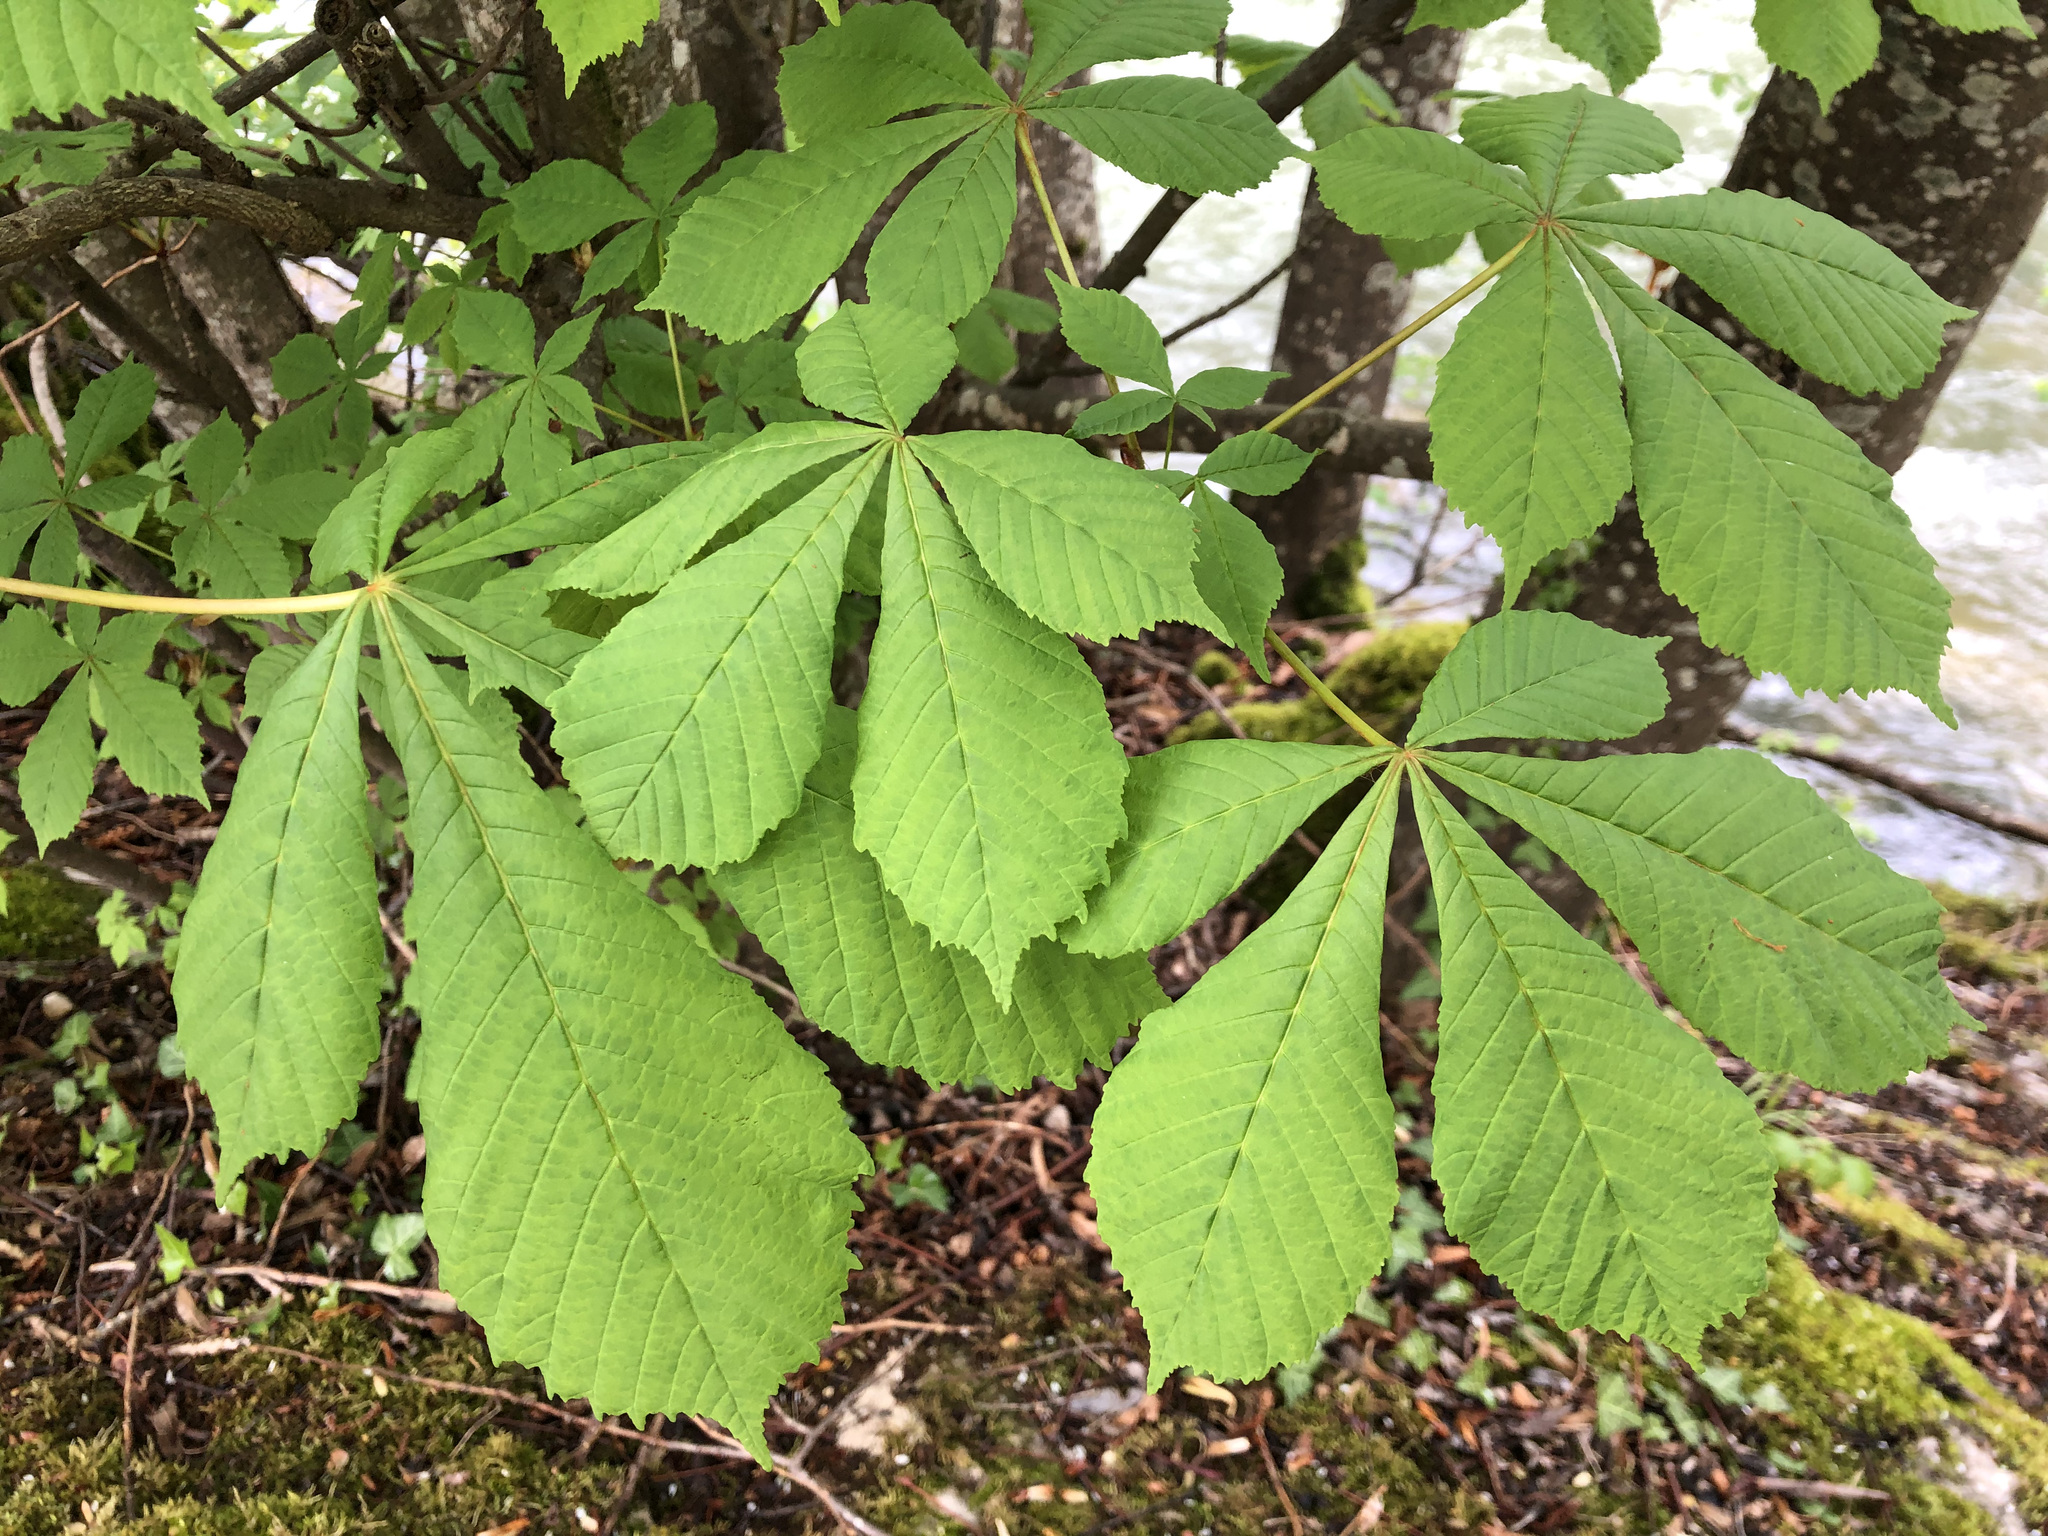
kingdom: Plantae
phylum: Tracheophyta
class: Magnoliopsida
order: Sapindales
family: Sapindaceae
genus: Aesculus
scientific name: Aesculus hippocastanum
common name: Horse-chestnut
